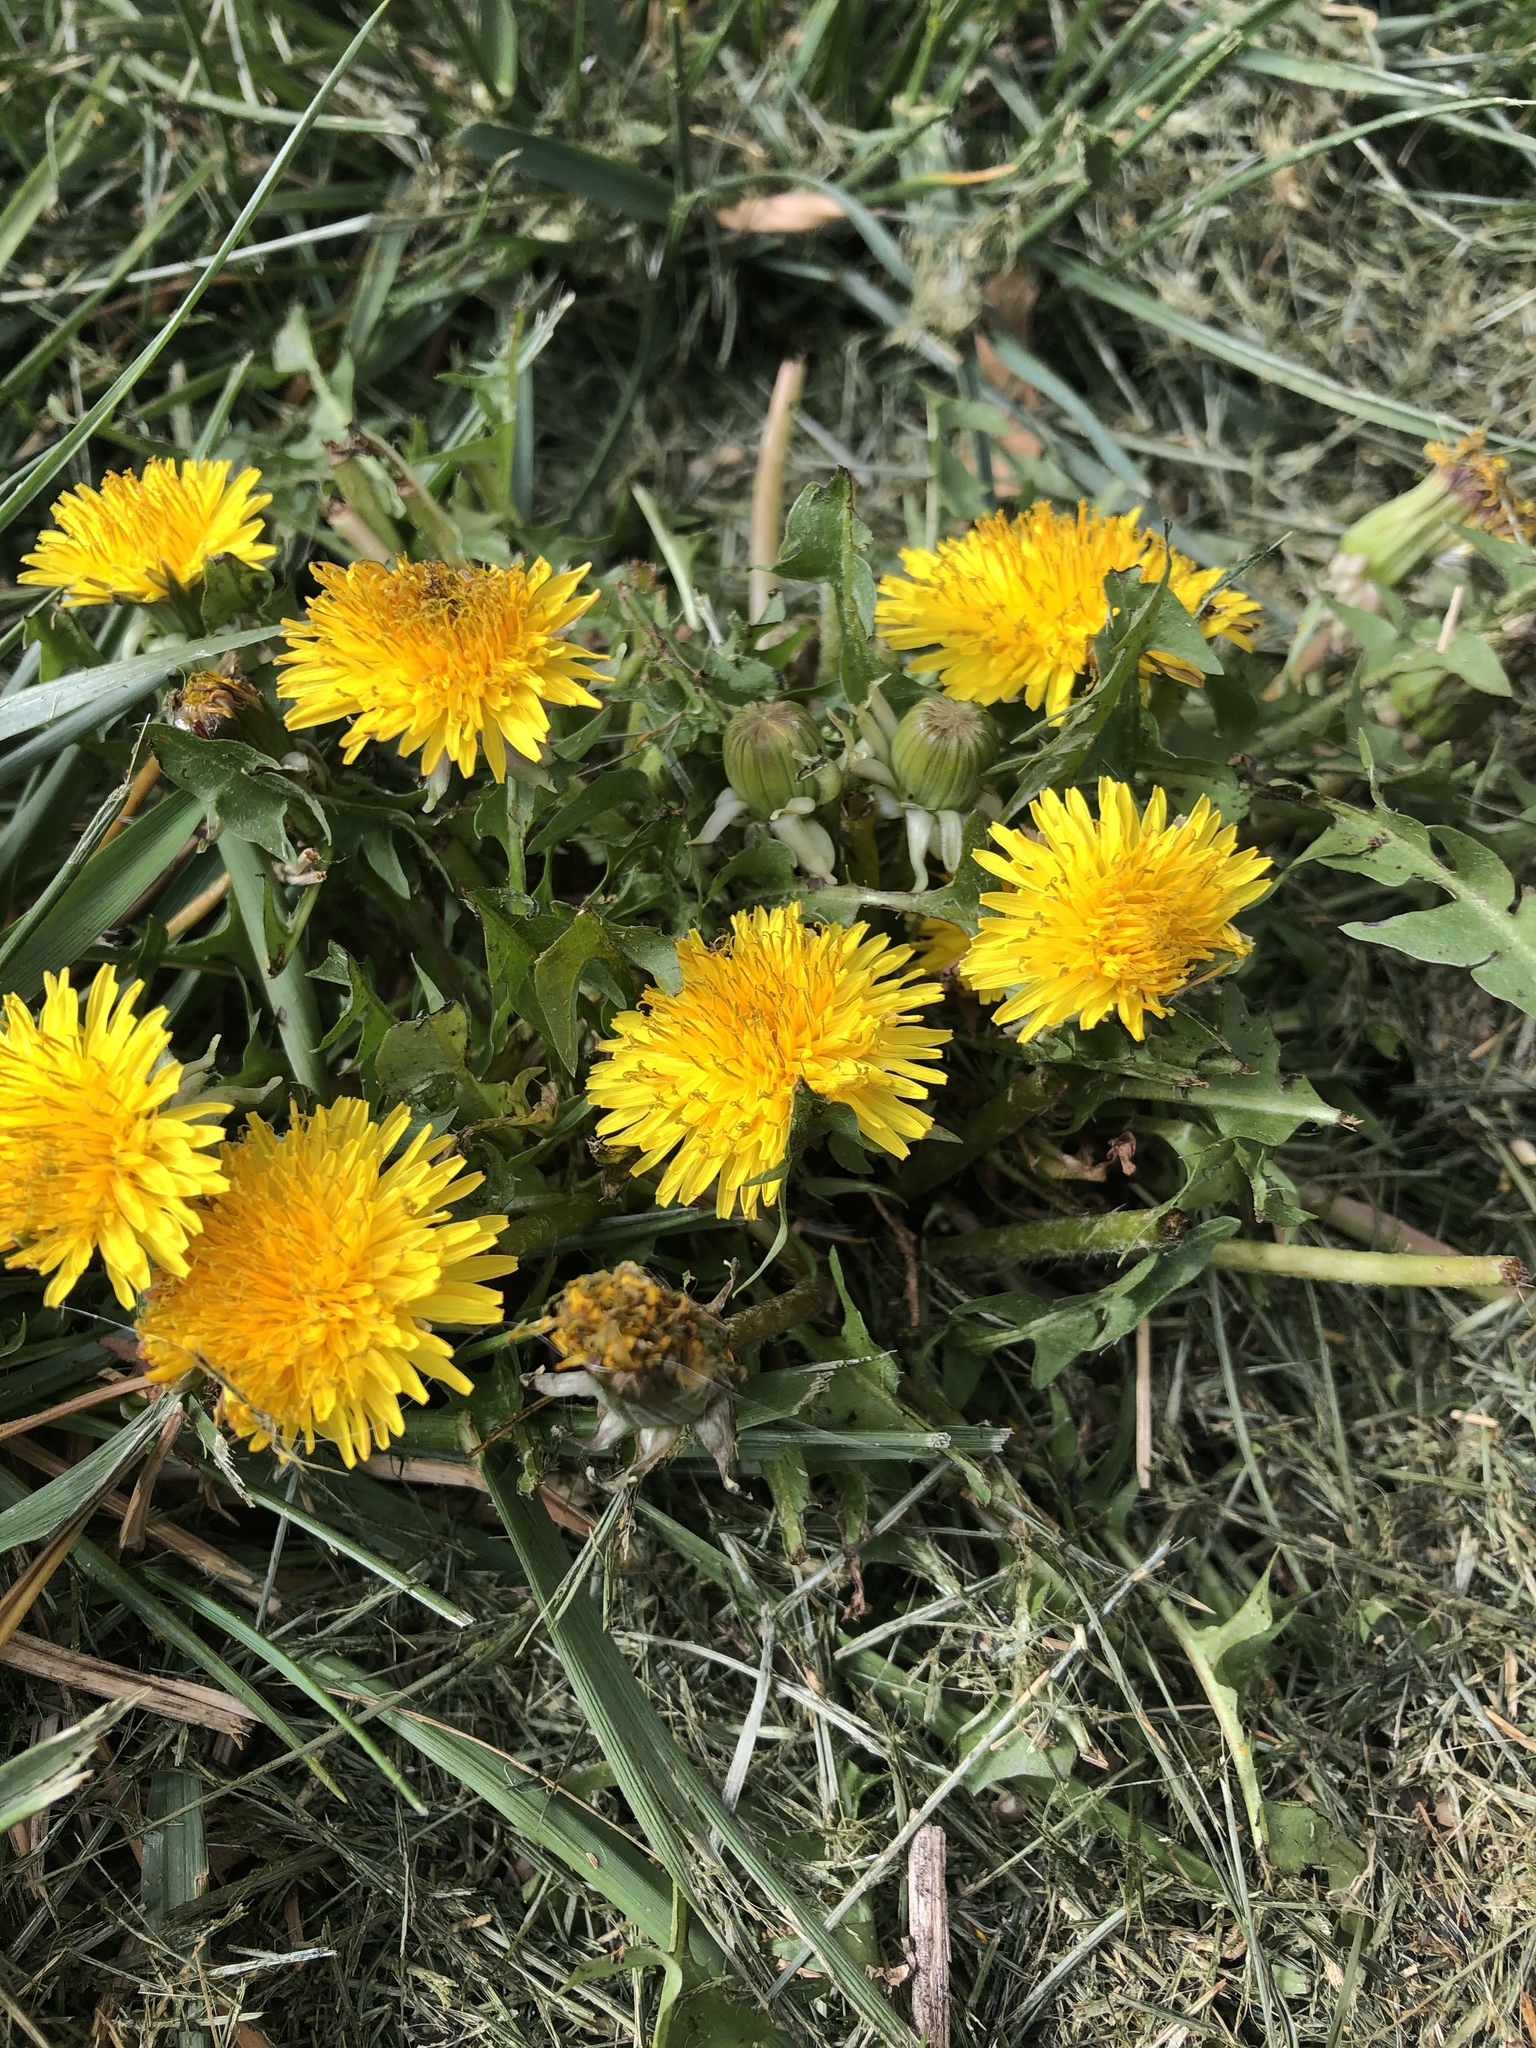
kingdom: Plantae
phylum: Tracheophyta
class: Magnoliopsida
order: Asterales
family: Asteraceae
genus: Taraxacum
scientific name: Taraxacum officinale
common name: Common dandelion
